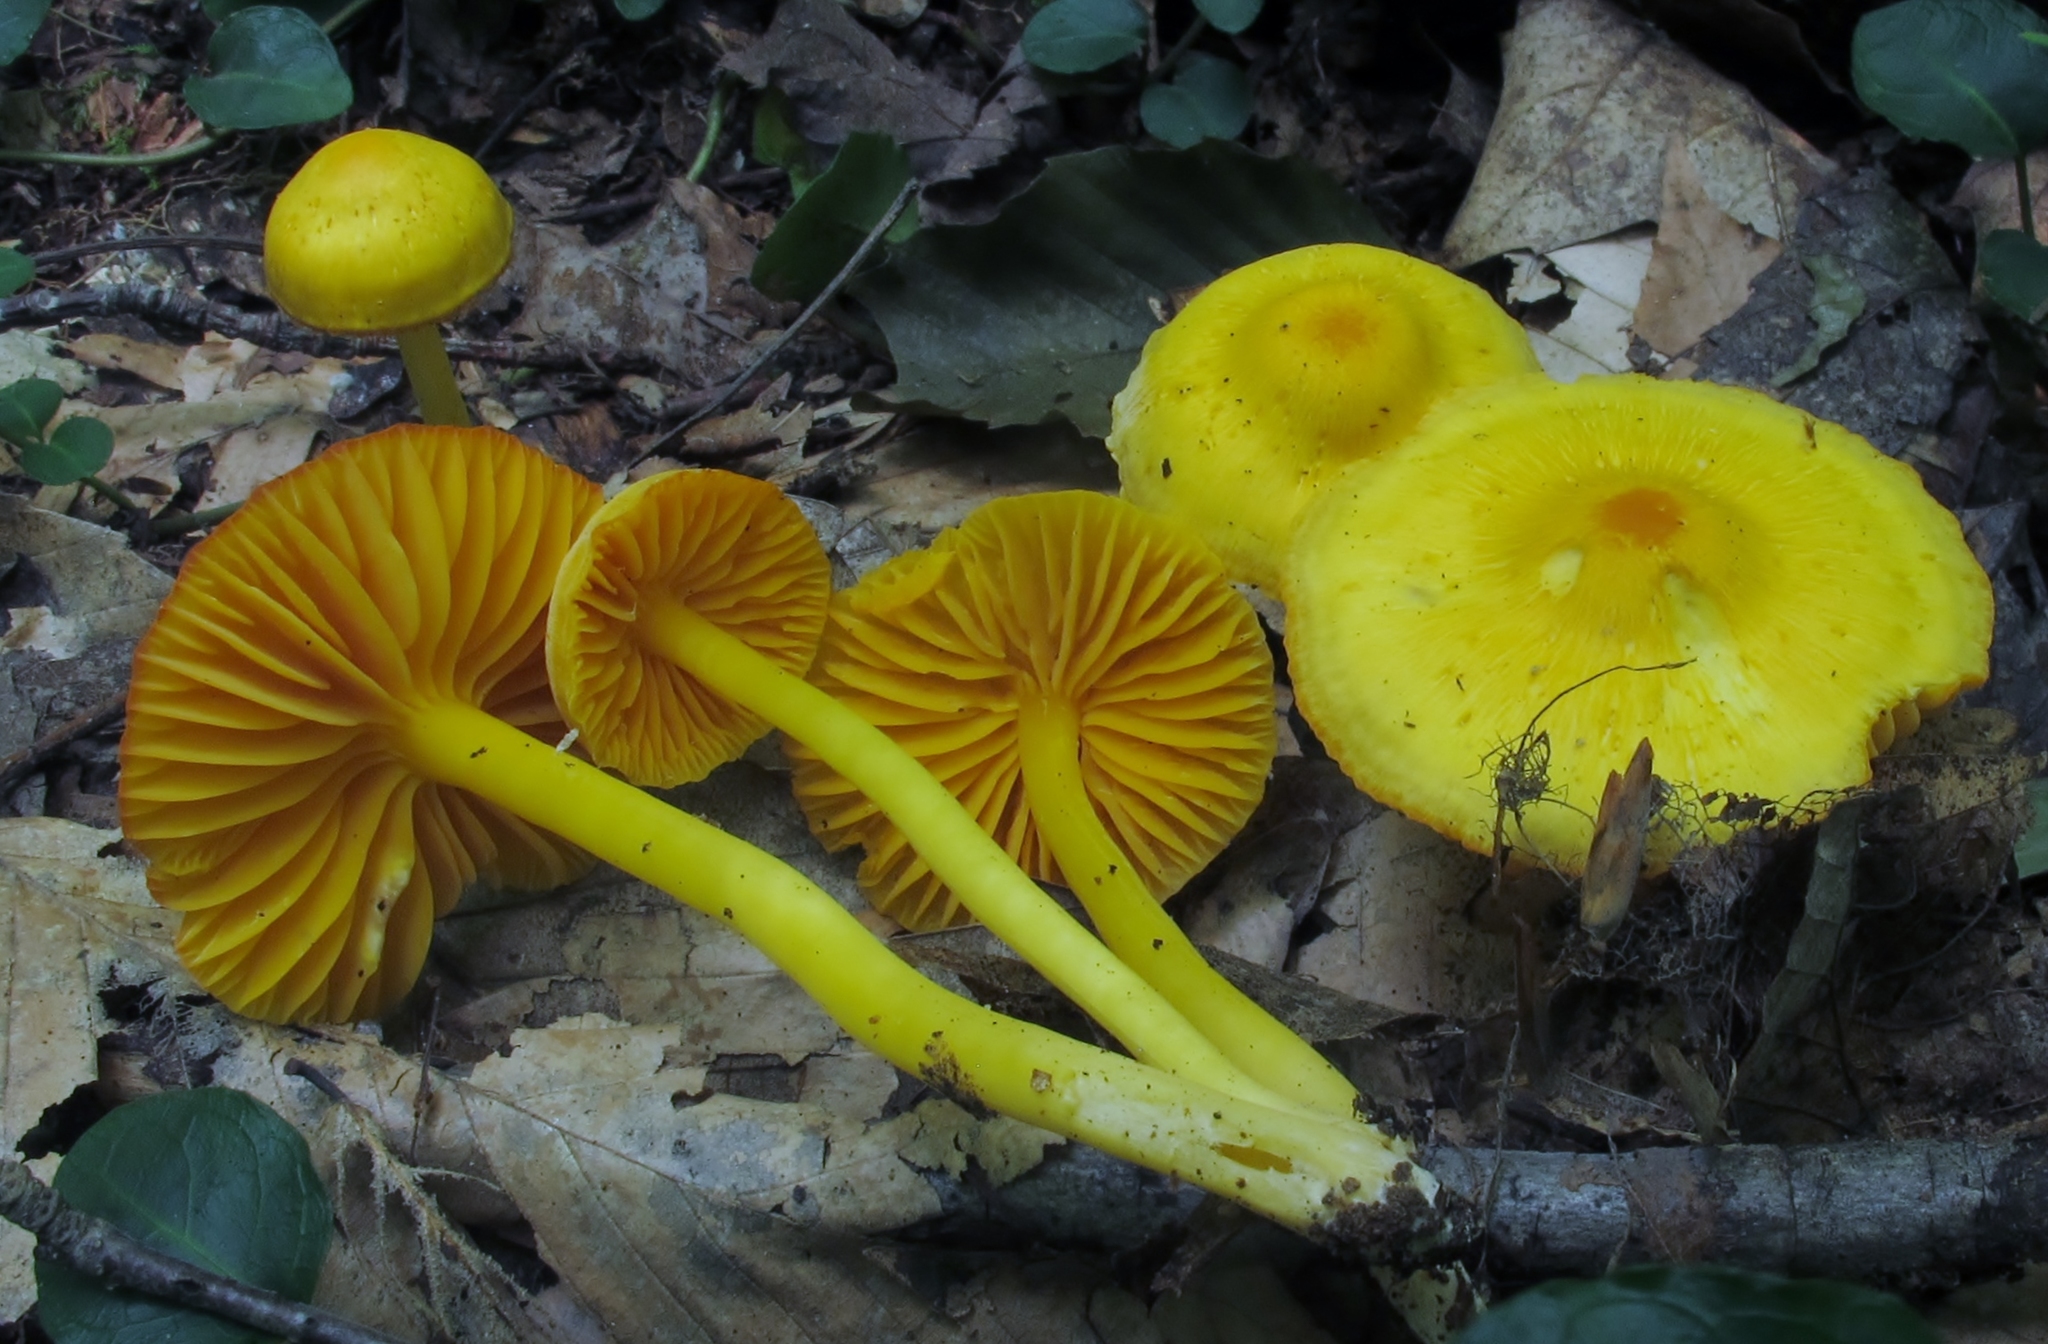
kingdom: Fungi
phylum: Basidiomycota
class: Agaricomycetes
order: Agaricales
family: Hygrophoraceae
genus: Humidicutis
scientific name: Humidicutis marginata
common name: Orange gilled waxcap
